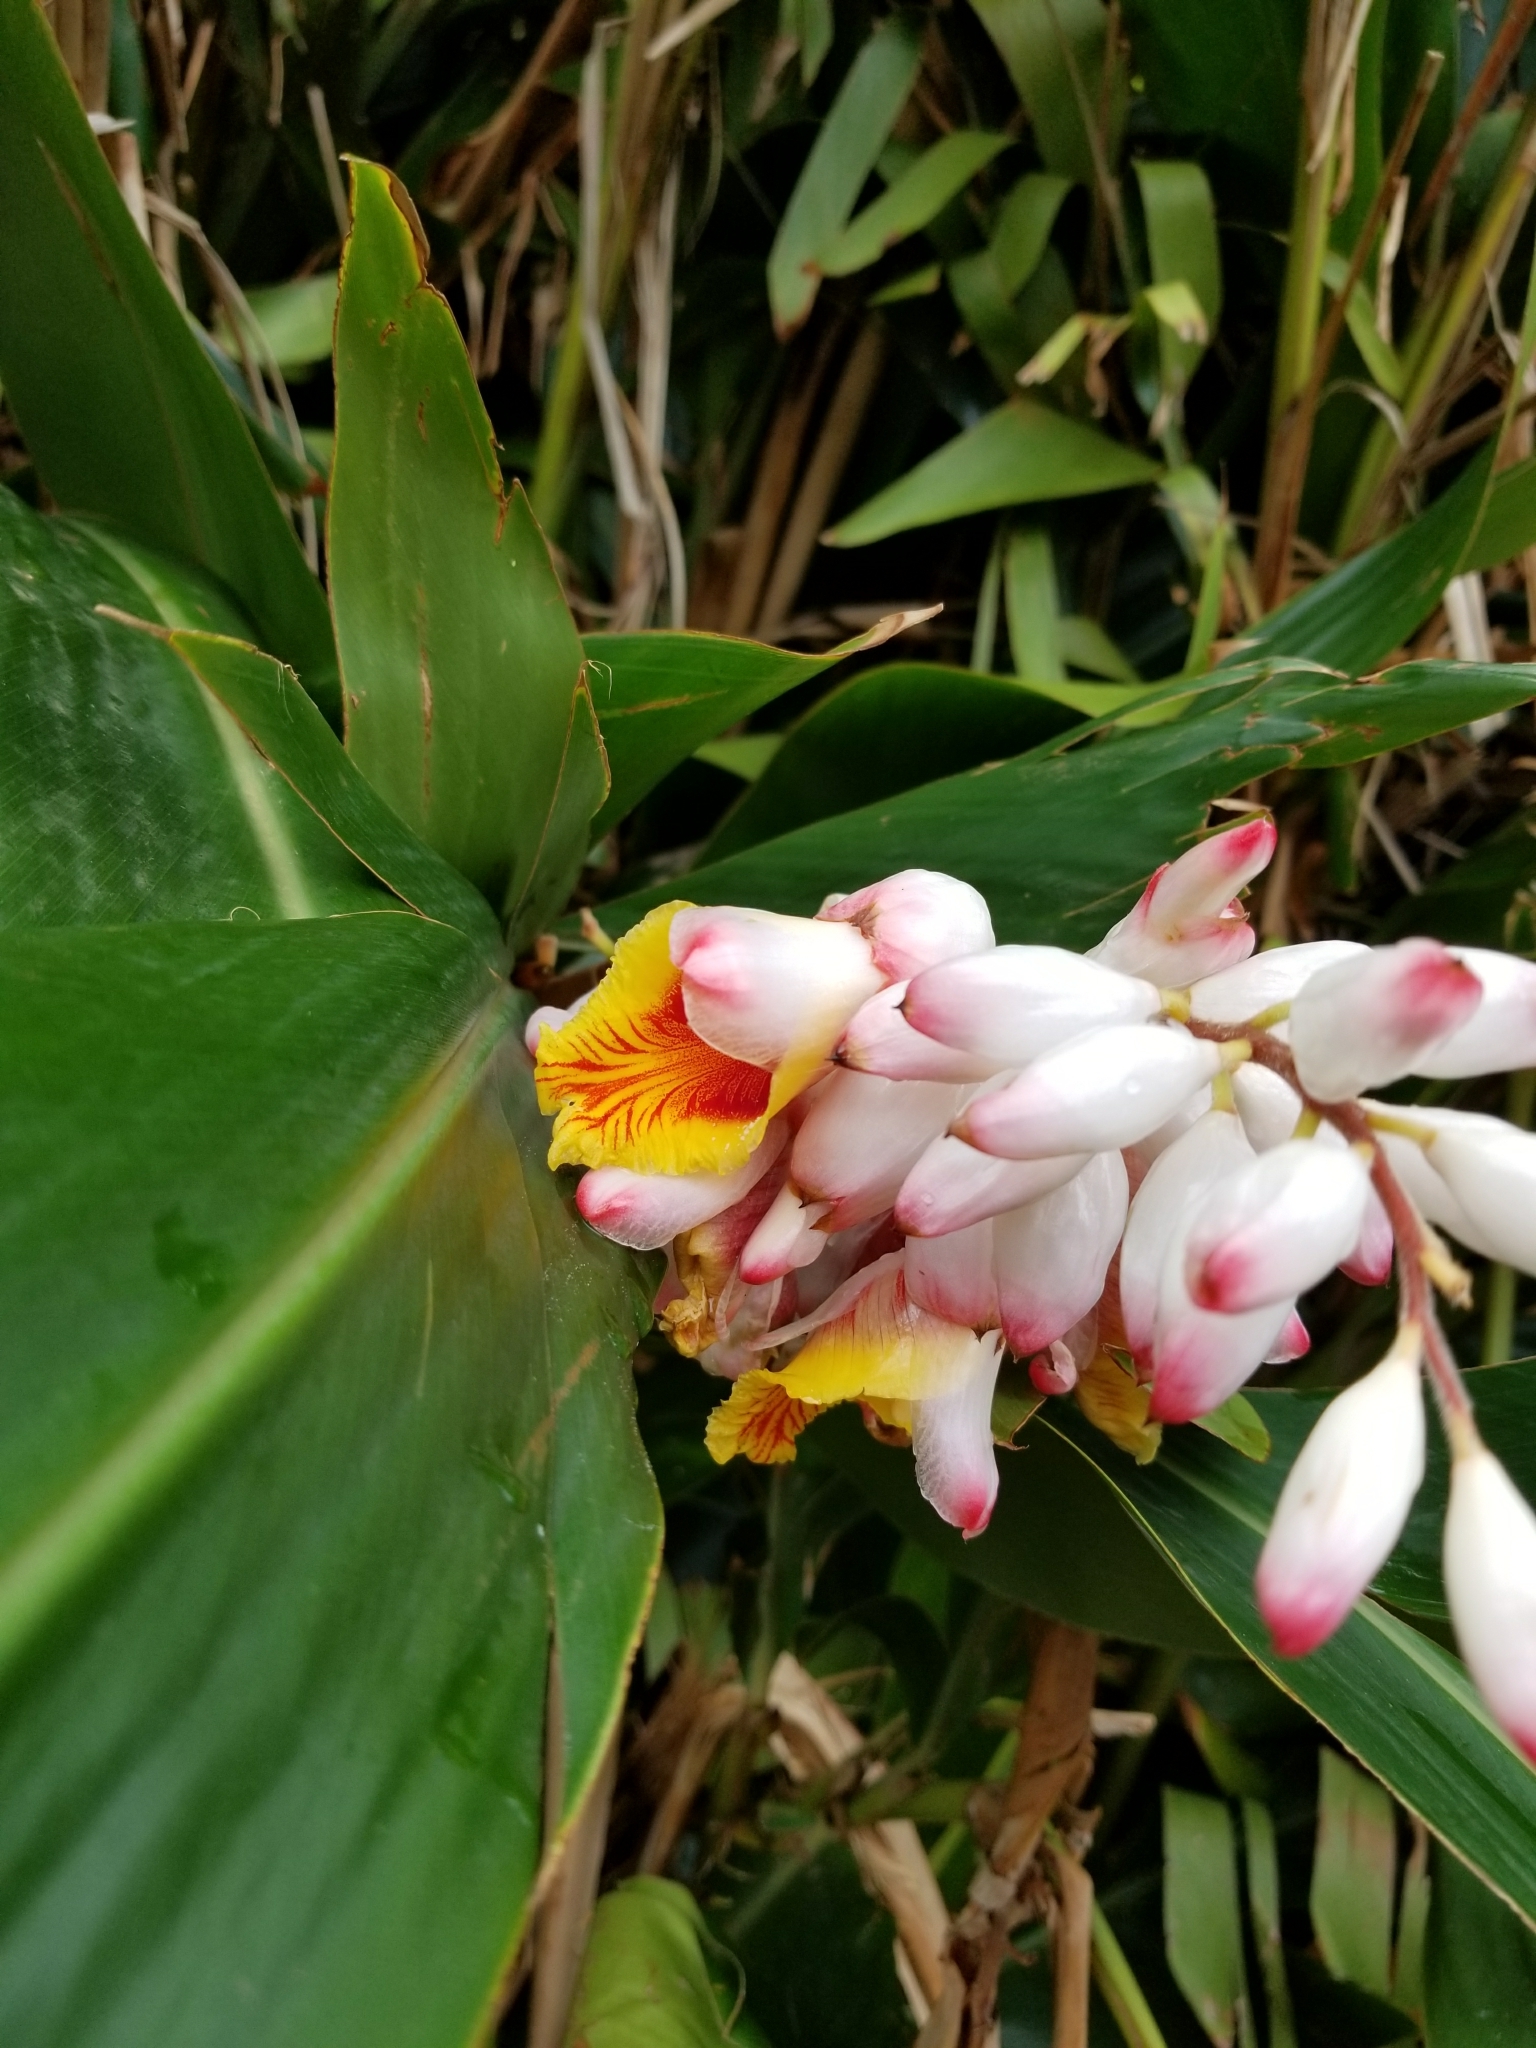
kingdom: Plantae
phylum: Tracheophyta
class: Liliopsida
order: Zingiberales
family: Zingiberaceae
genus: Alpinia
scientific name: Alpinia zerumbet
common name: Shellplant
